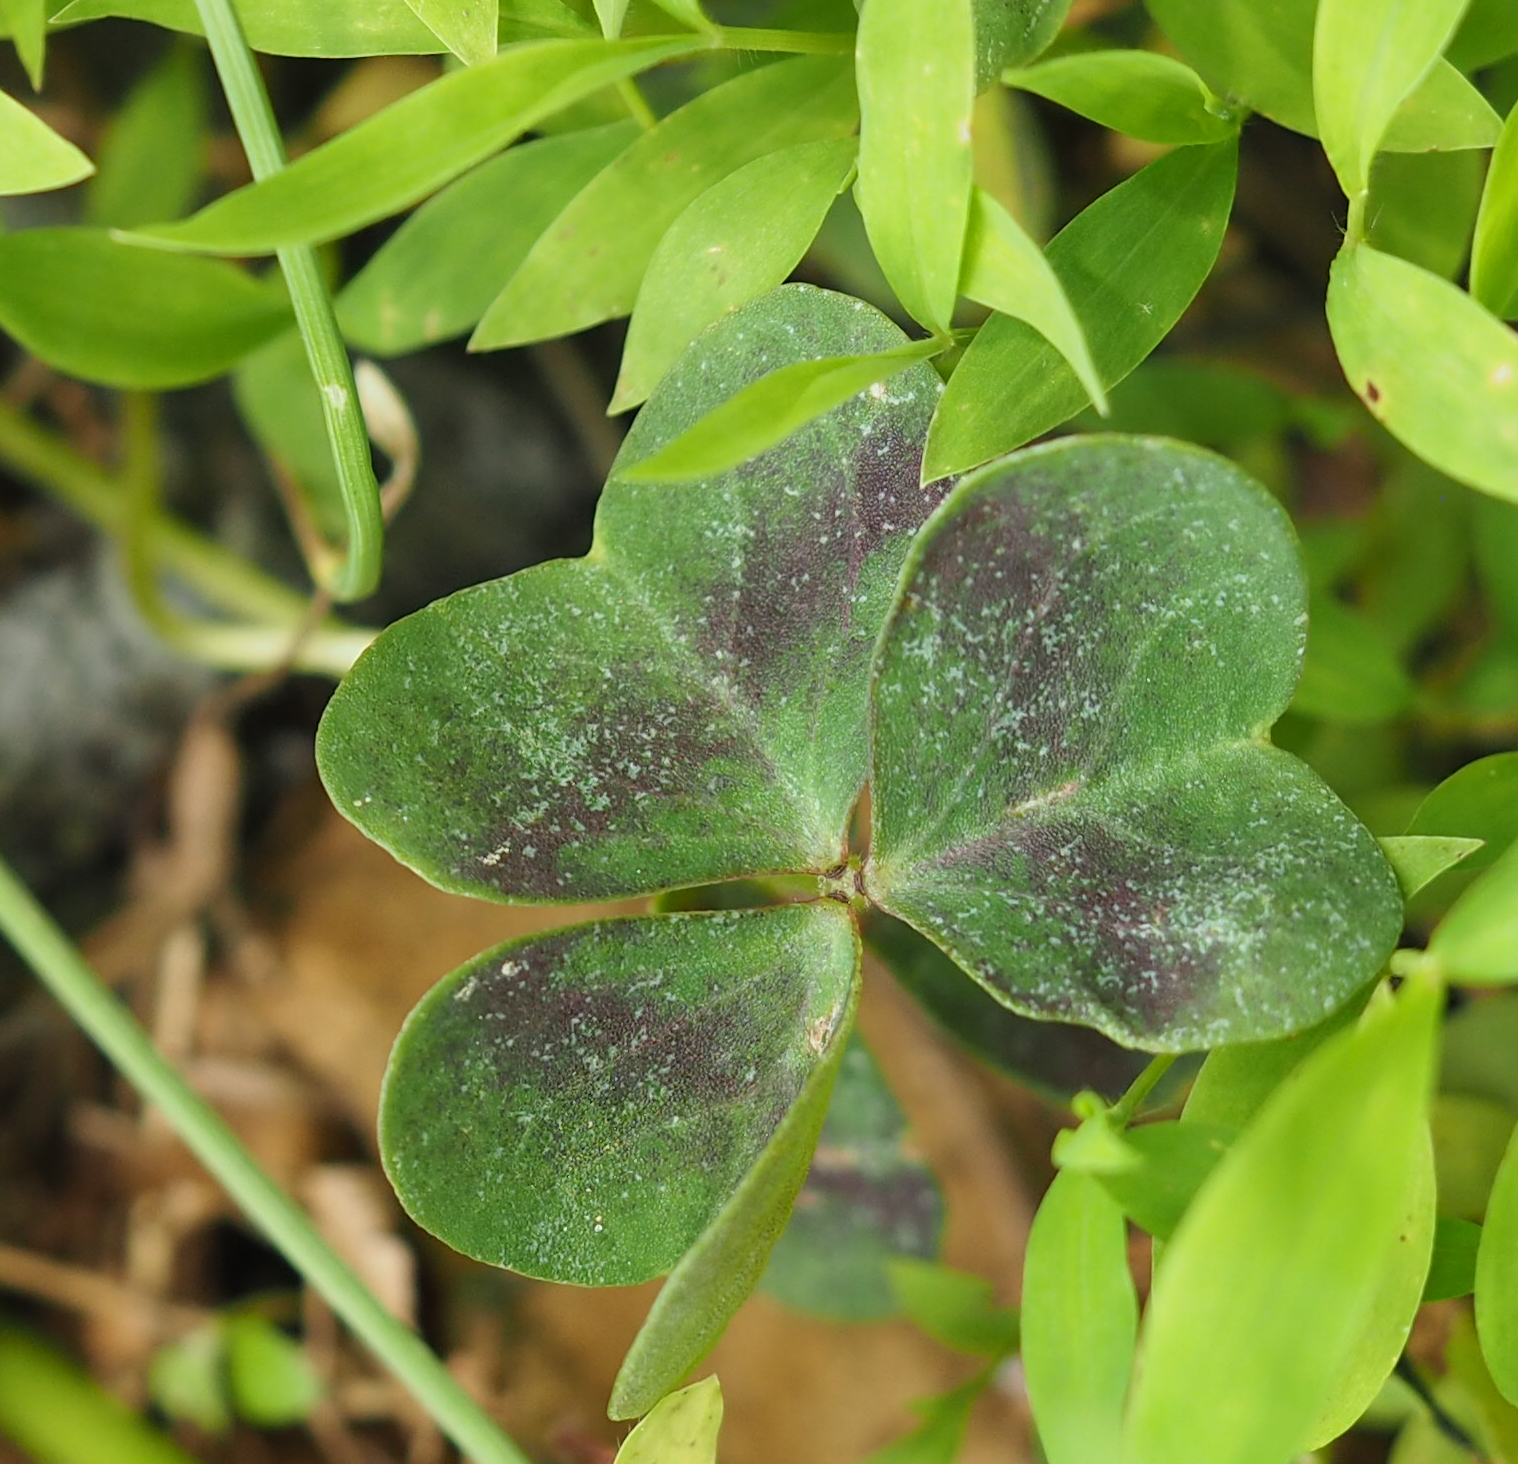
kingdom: Plantae
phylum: Tracheophyta
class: Magnoliopsida
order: Oxalidales
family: Oxalidaceae
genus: Oxalis
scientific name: Oxalis violacea
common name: Violet wood-sorrel
